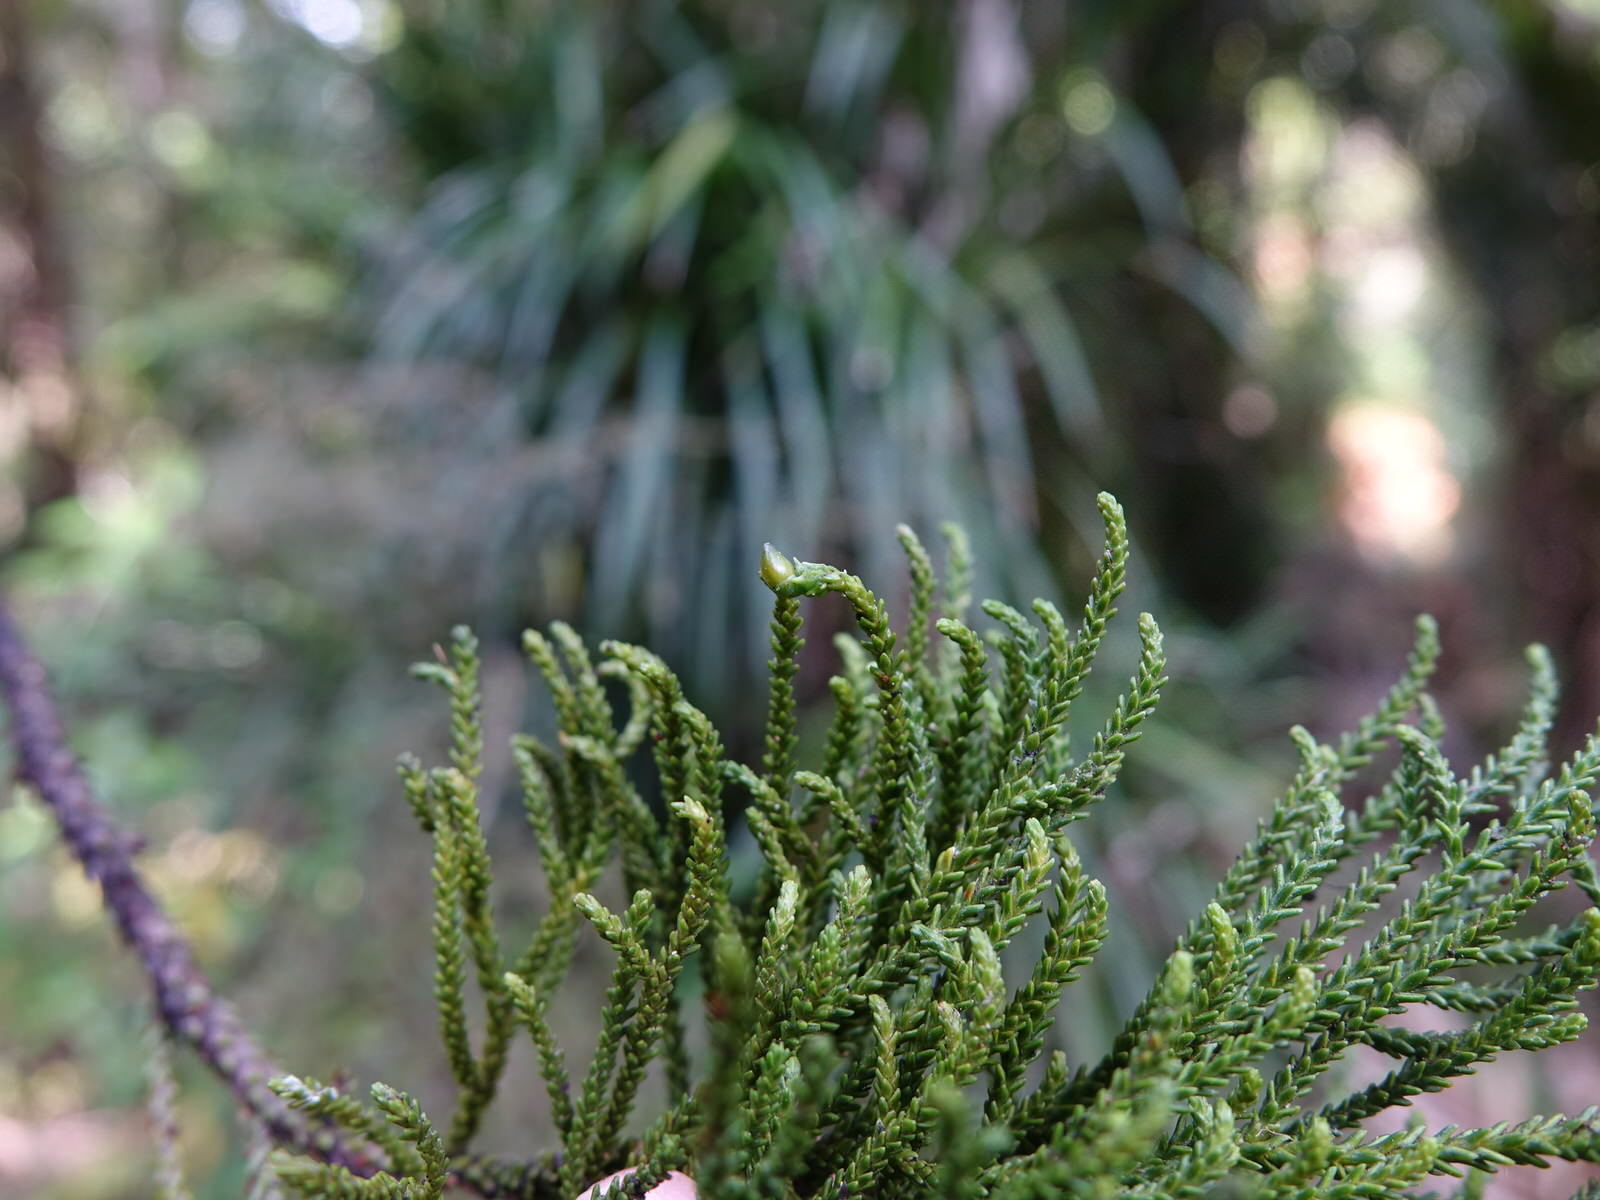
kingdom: Plantae
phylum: Tracheophyta
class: Pinopsida
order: Pinales
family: Podocarpaceae
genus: Dacrydium
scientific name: Dacrydium cupressinum
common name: Red pine
